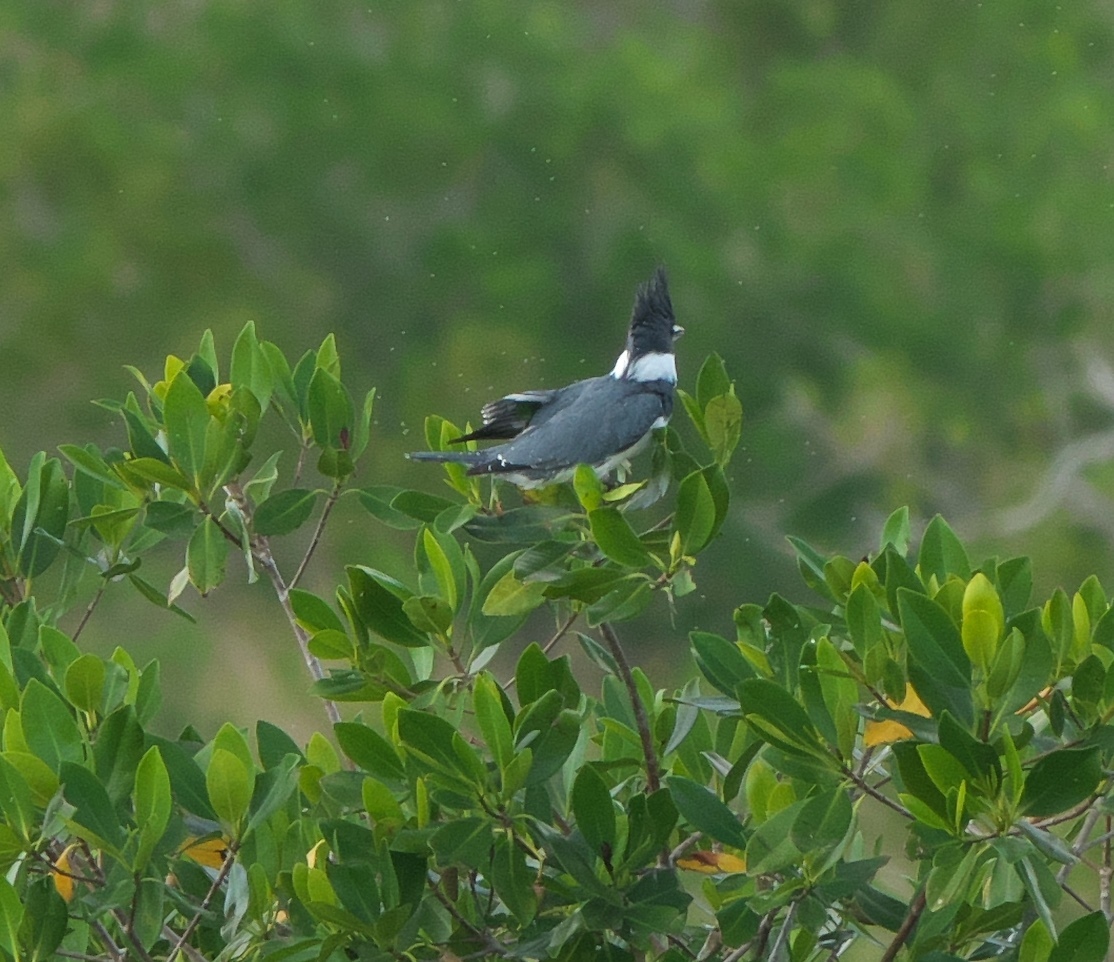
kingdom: Animalia
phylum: Chordata
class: Aves
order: Coraciiformes
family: Alcedinidae
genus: Megaceryle
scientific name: Megaceryle alcyon
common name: Belted kingfisher
